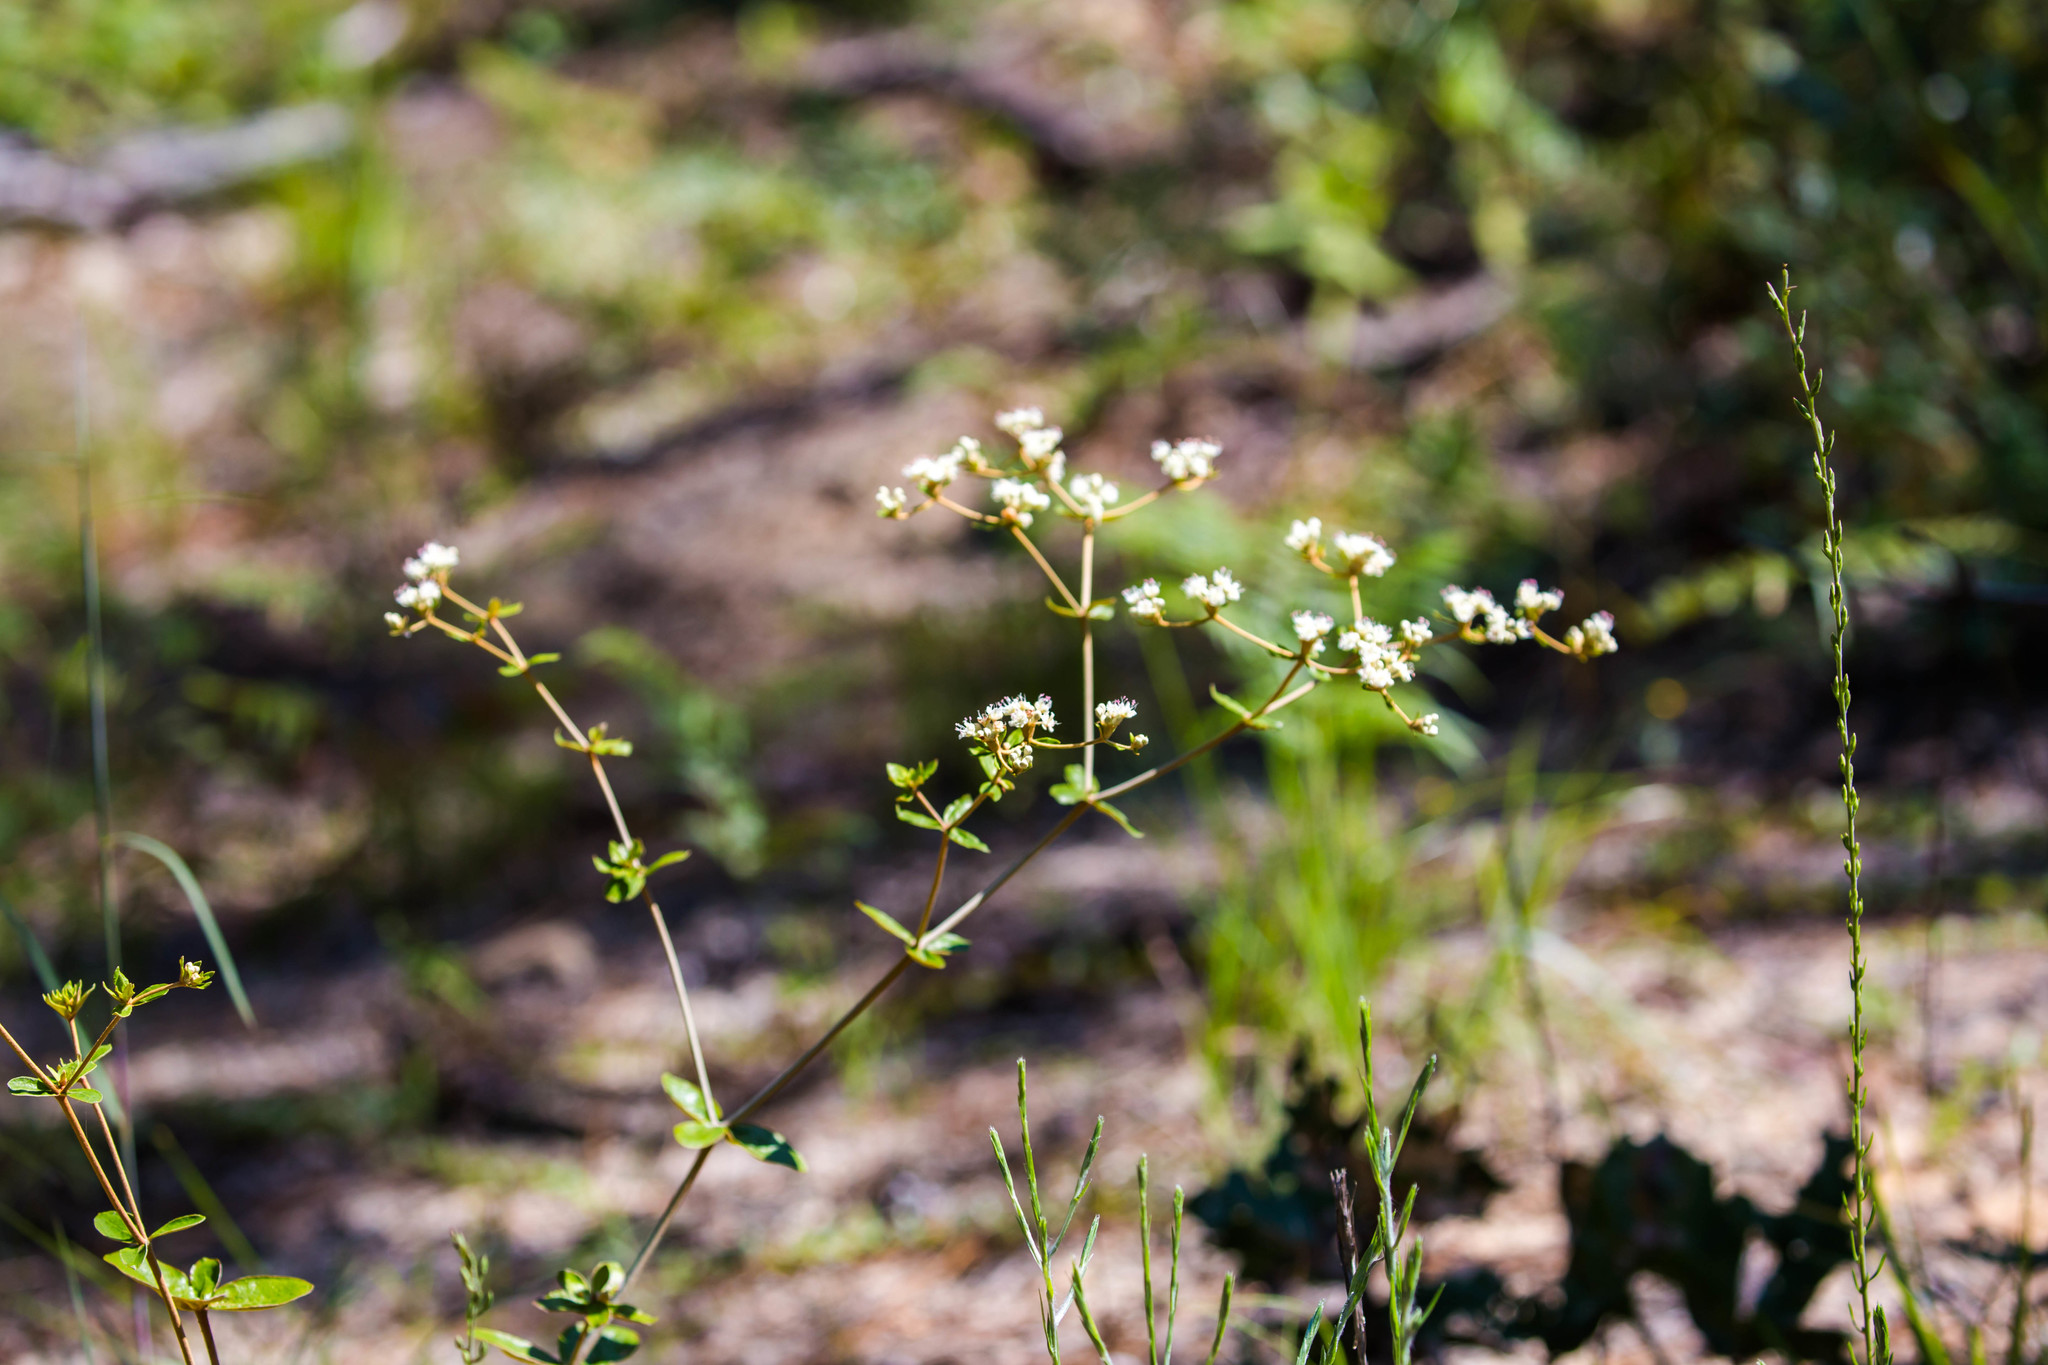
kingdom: Plantae
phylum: Tracheophyta
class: Magnoliopsida
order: Caryophyllales
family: Polygonaceae
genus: Eriogonum
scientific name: Eriogonum tomentosum
